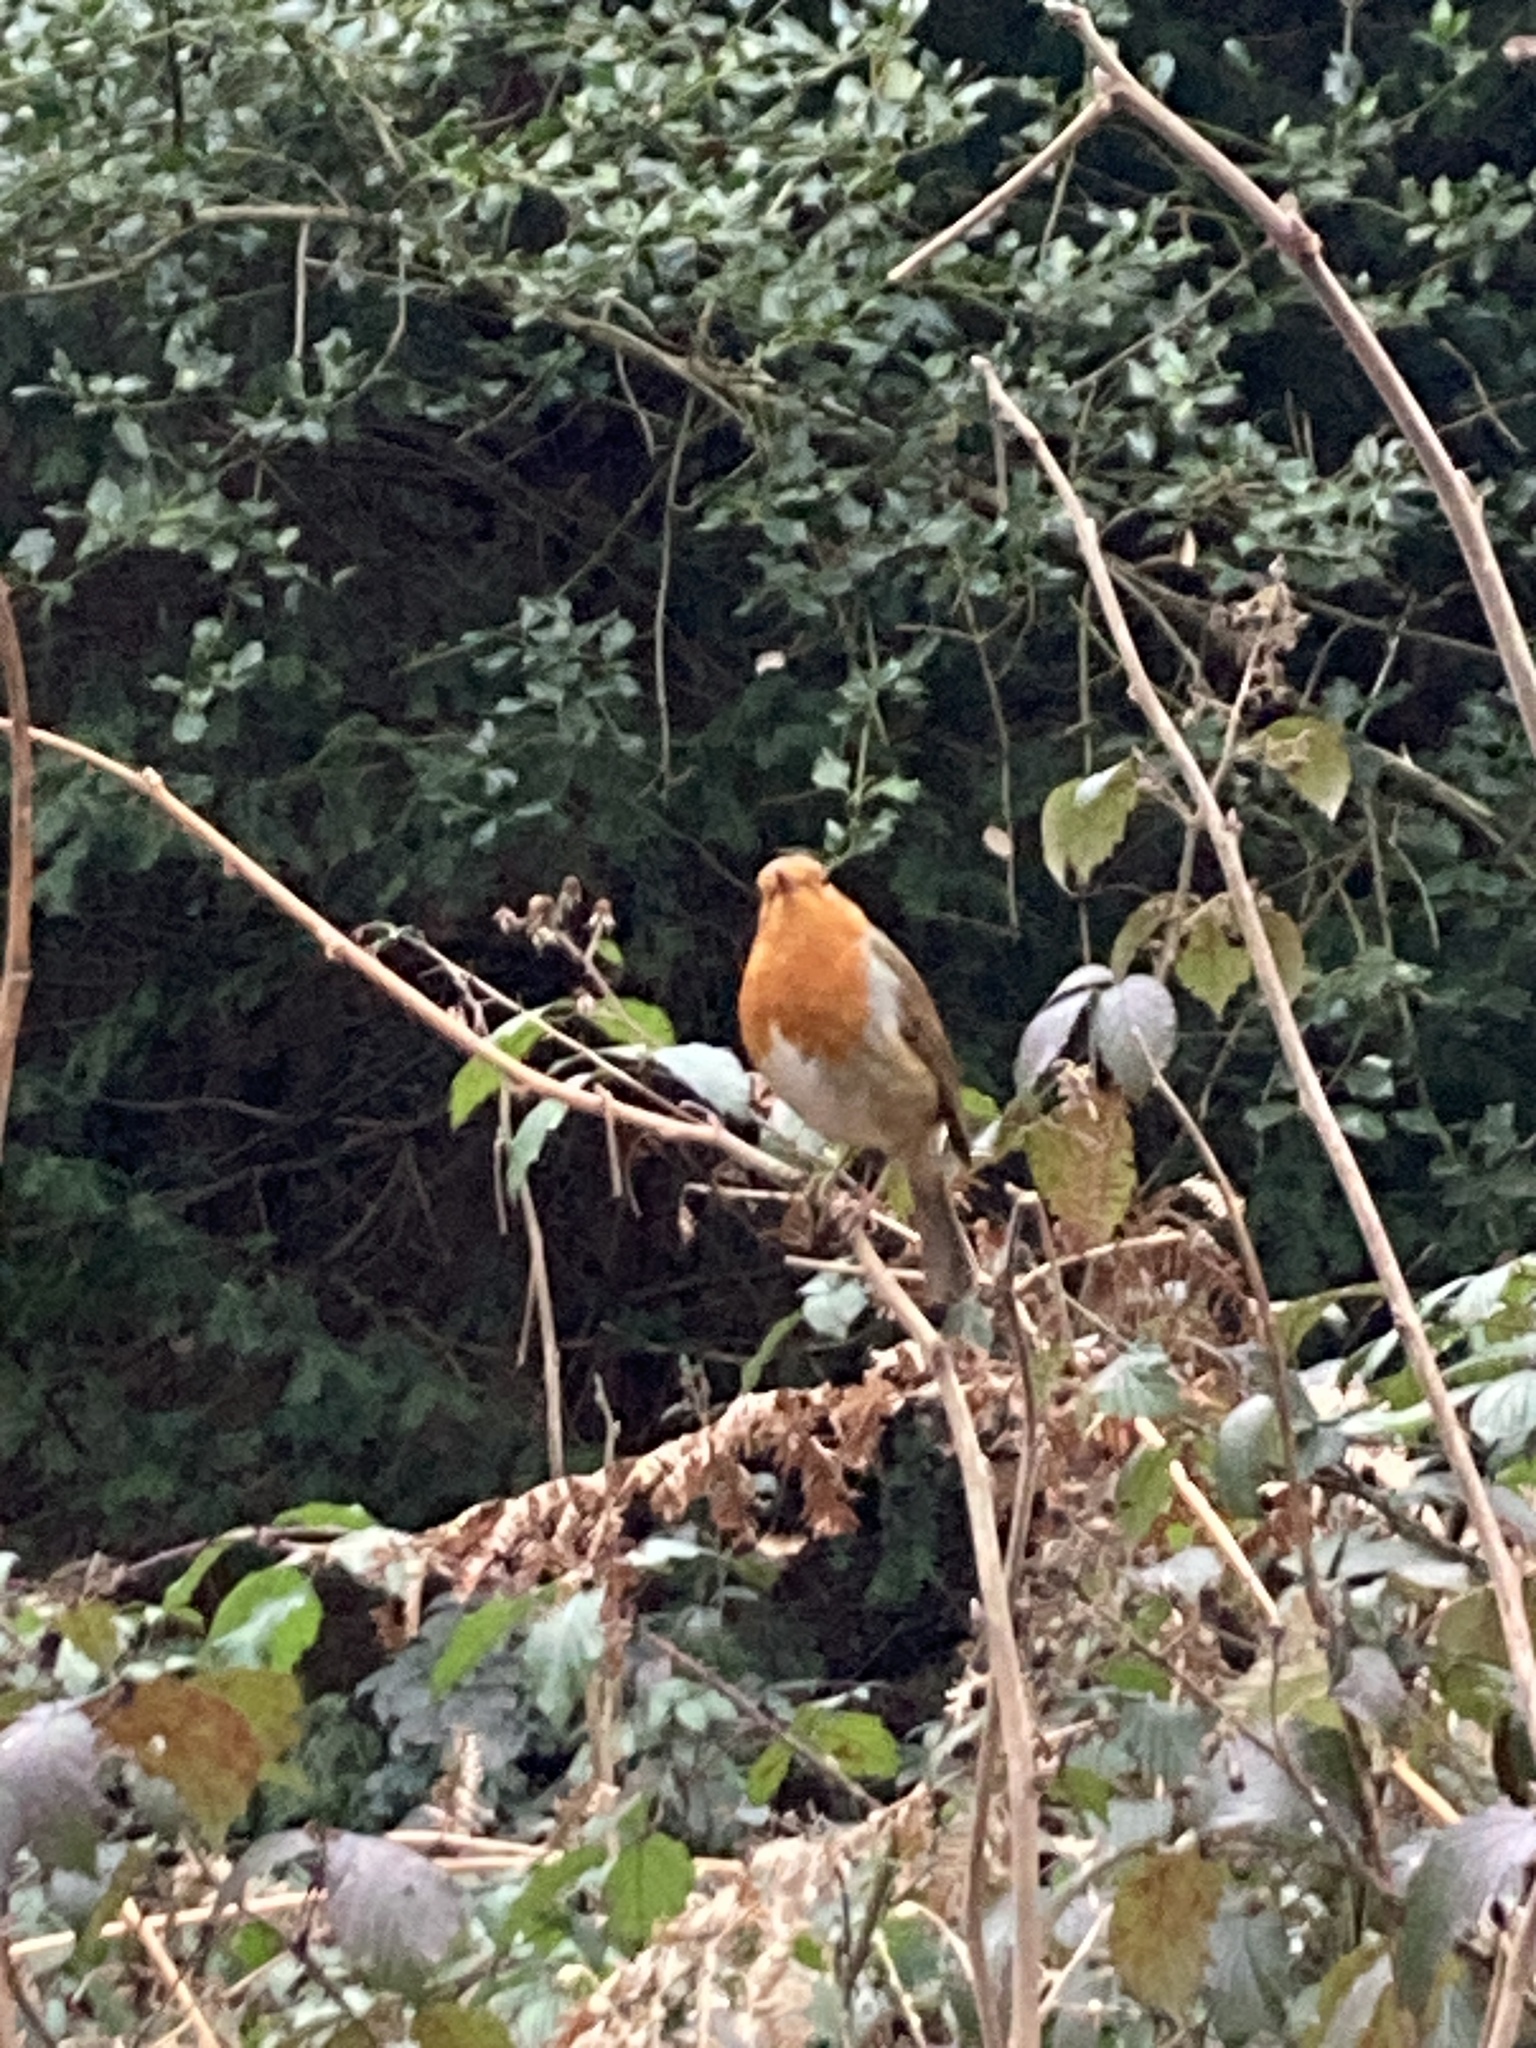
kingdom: Animalia
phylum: Chordata
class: Aves
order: Passeriformes
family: Muscicapidae
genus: Erithacus
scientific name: Erithacus rubecula
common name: European robin
